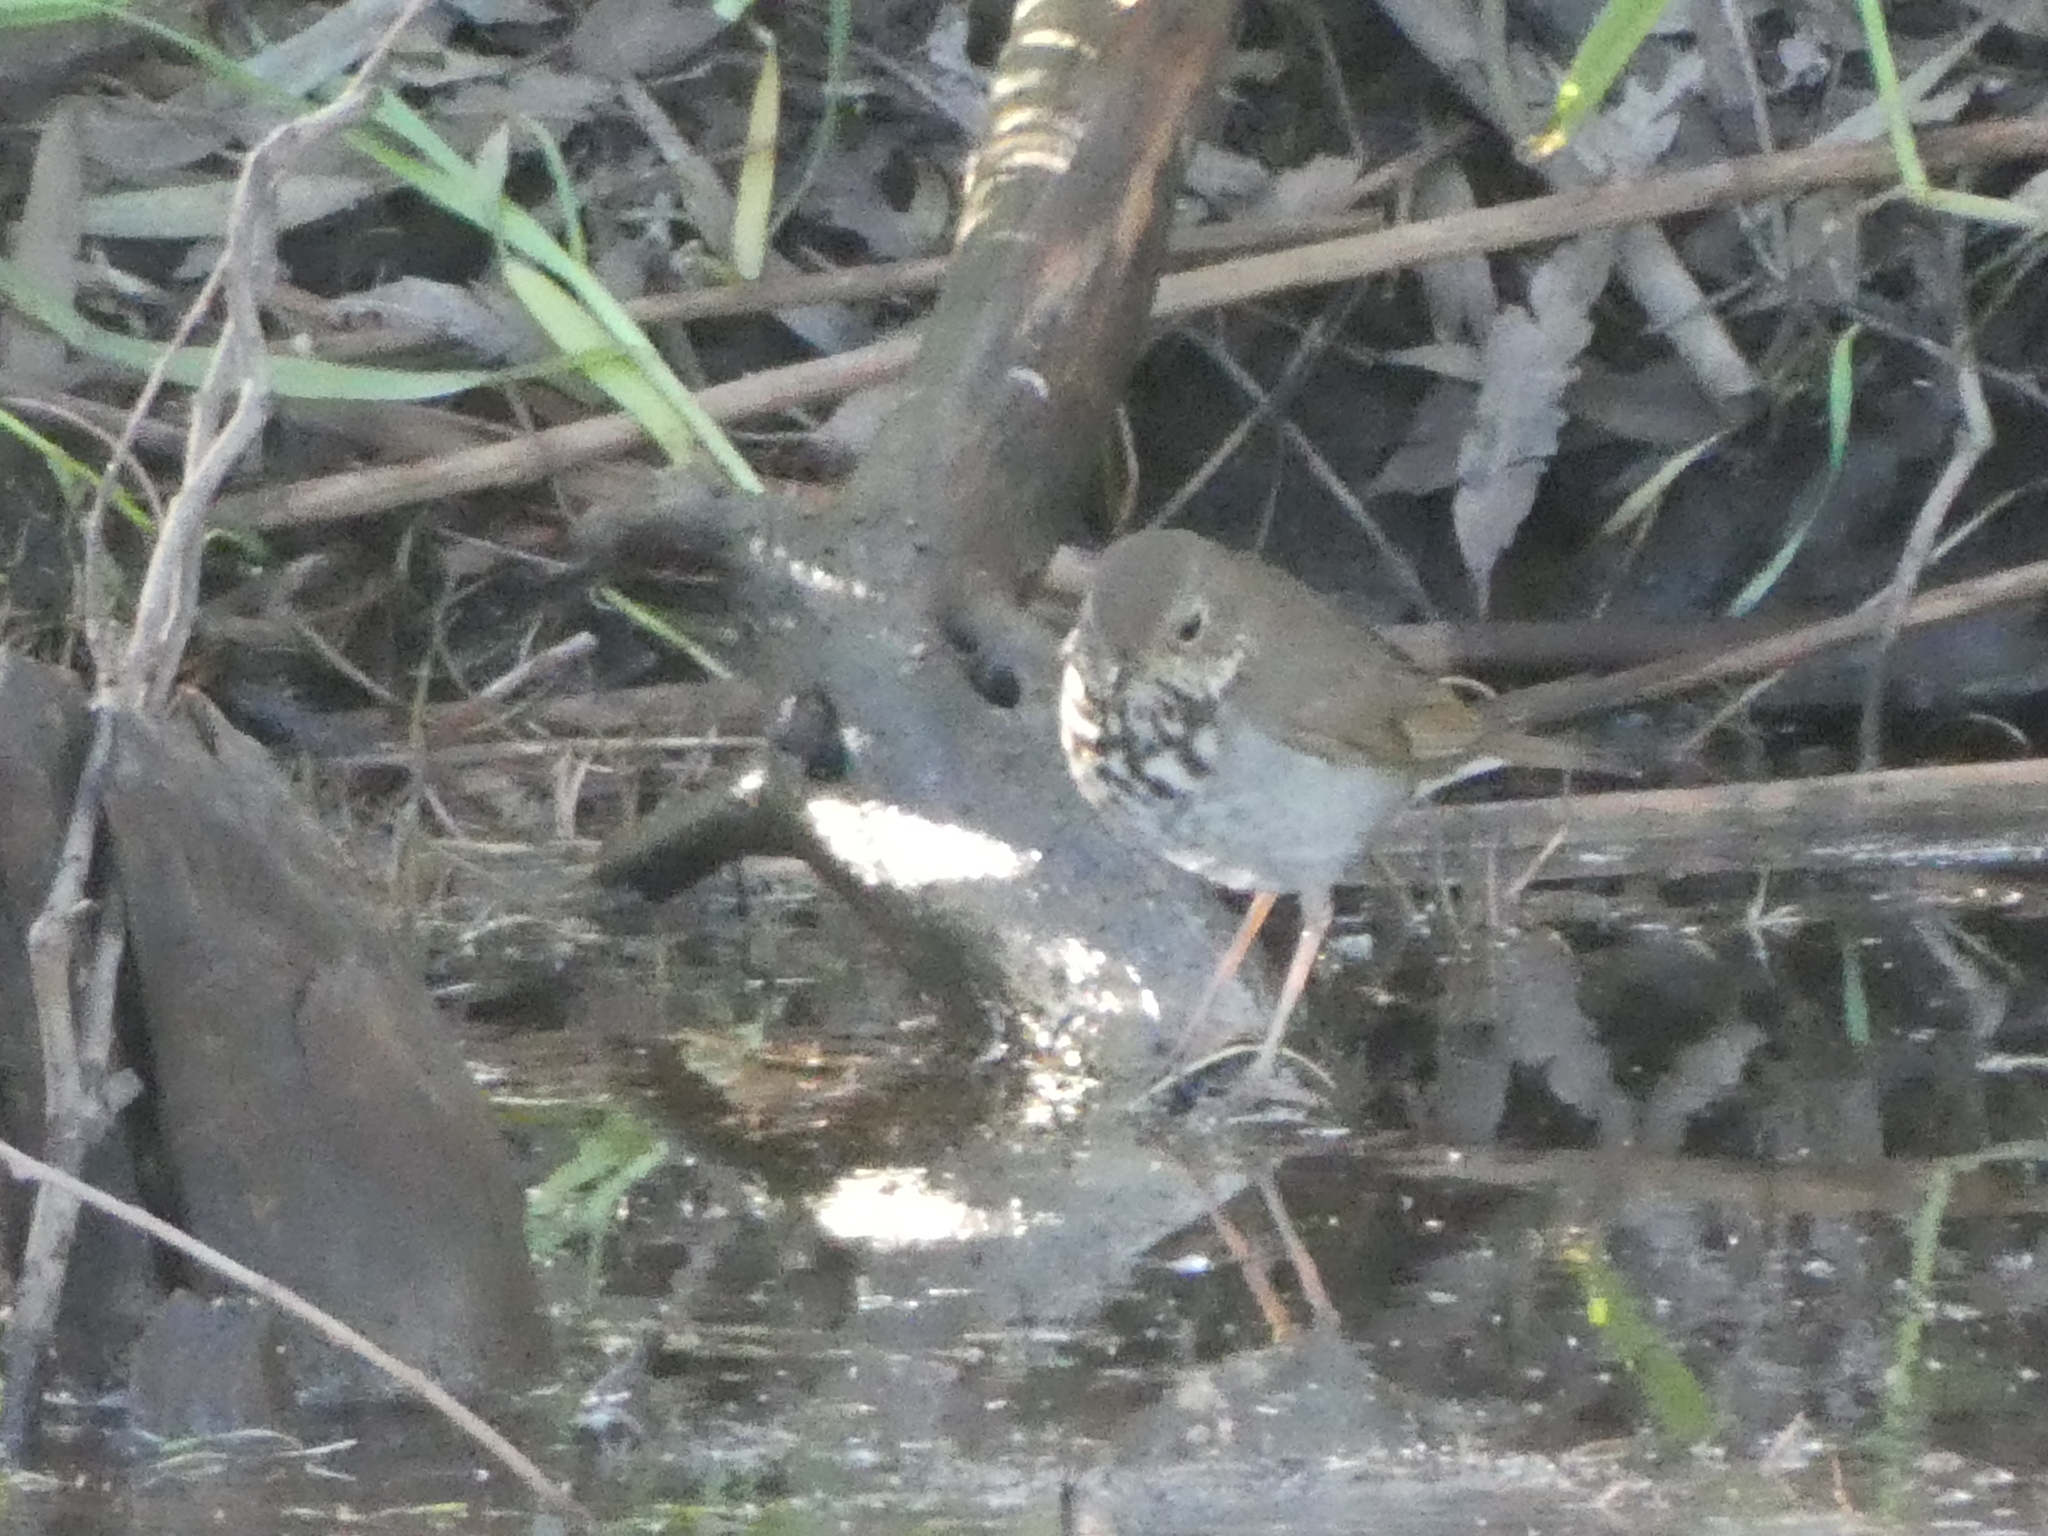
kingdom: Animalia
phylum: Chordata
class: Aves
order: Passeriformes
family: Turdidae
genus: Catharus
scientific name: Catharus guttatus
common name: Hermit thrush
